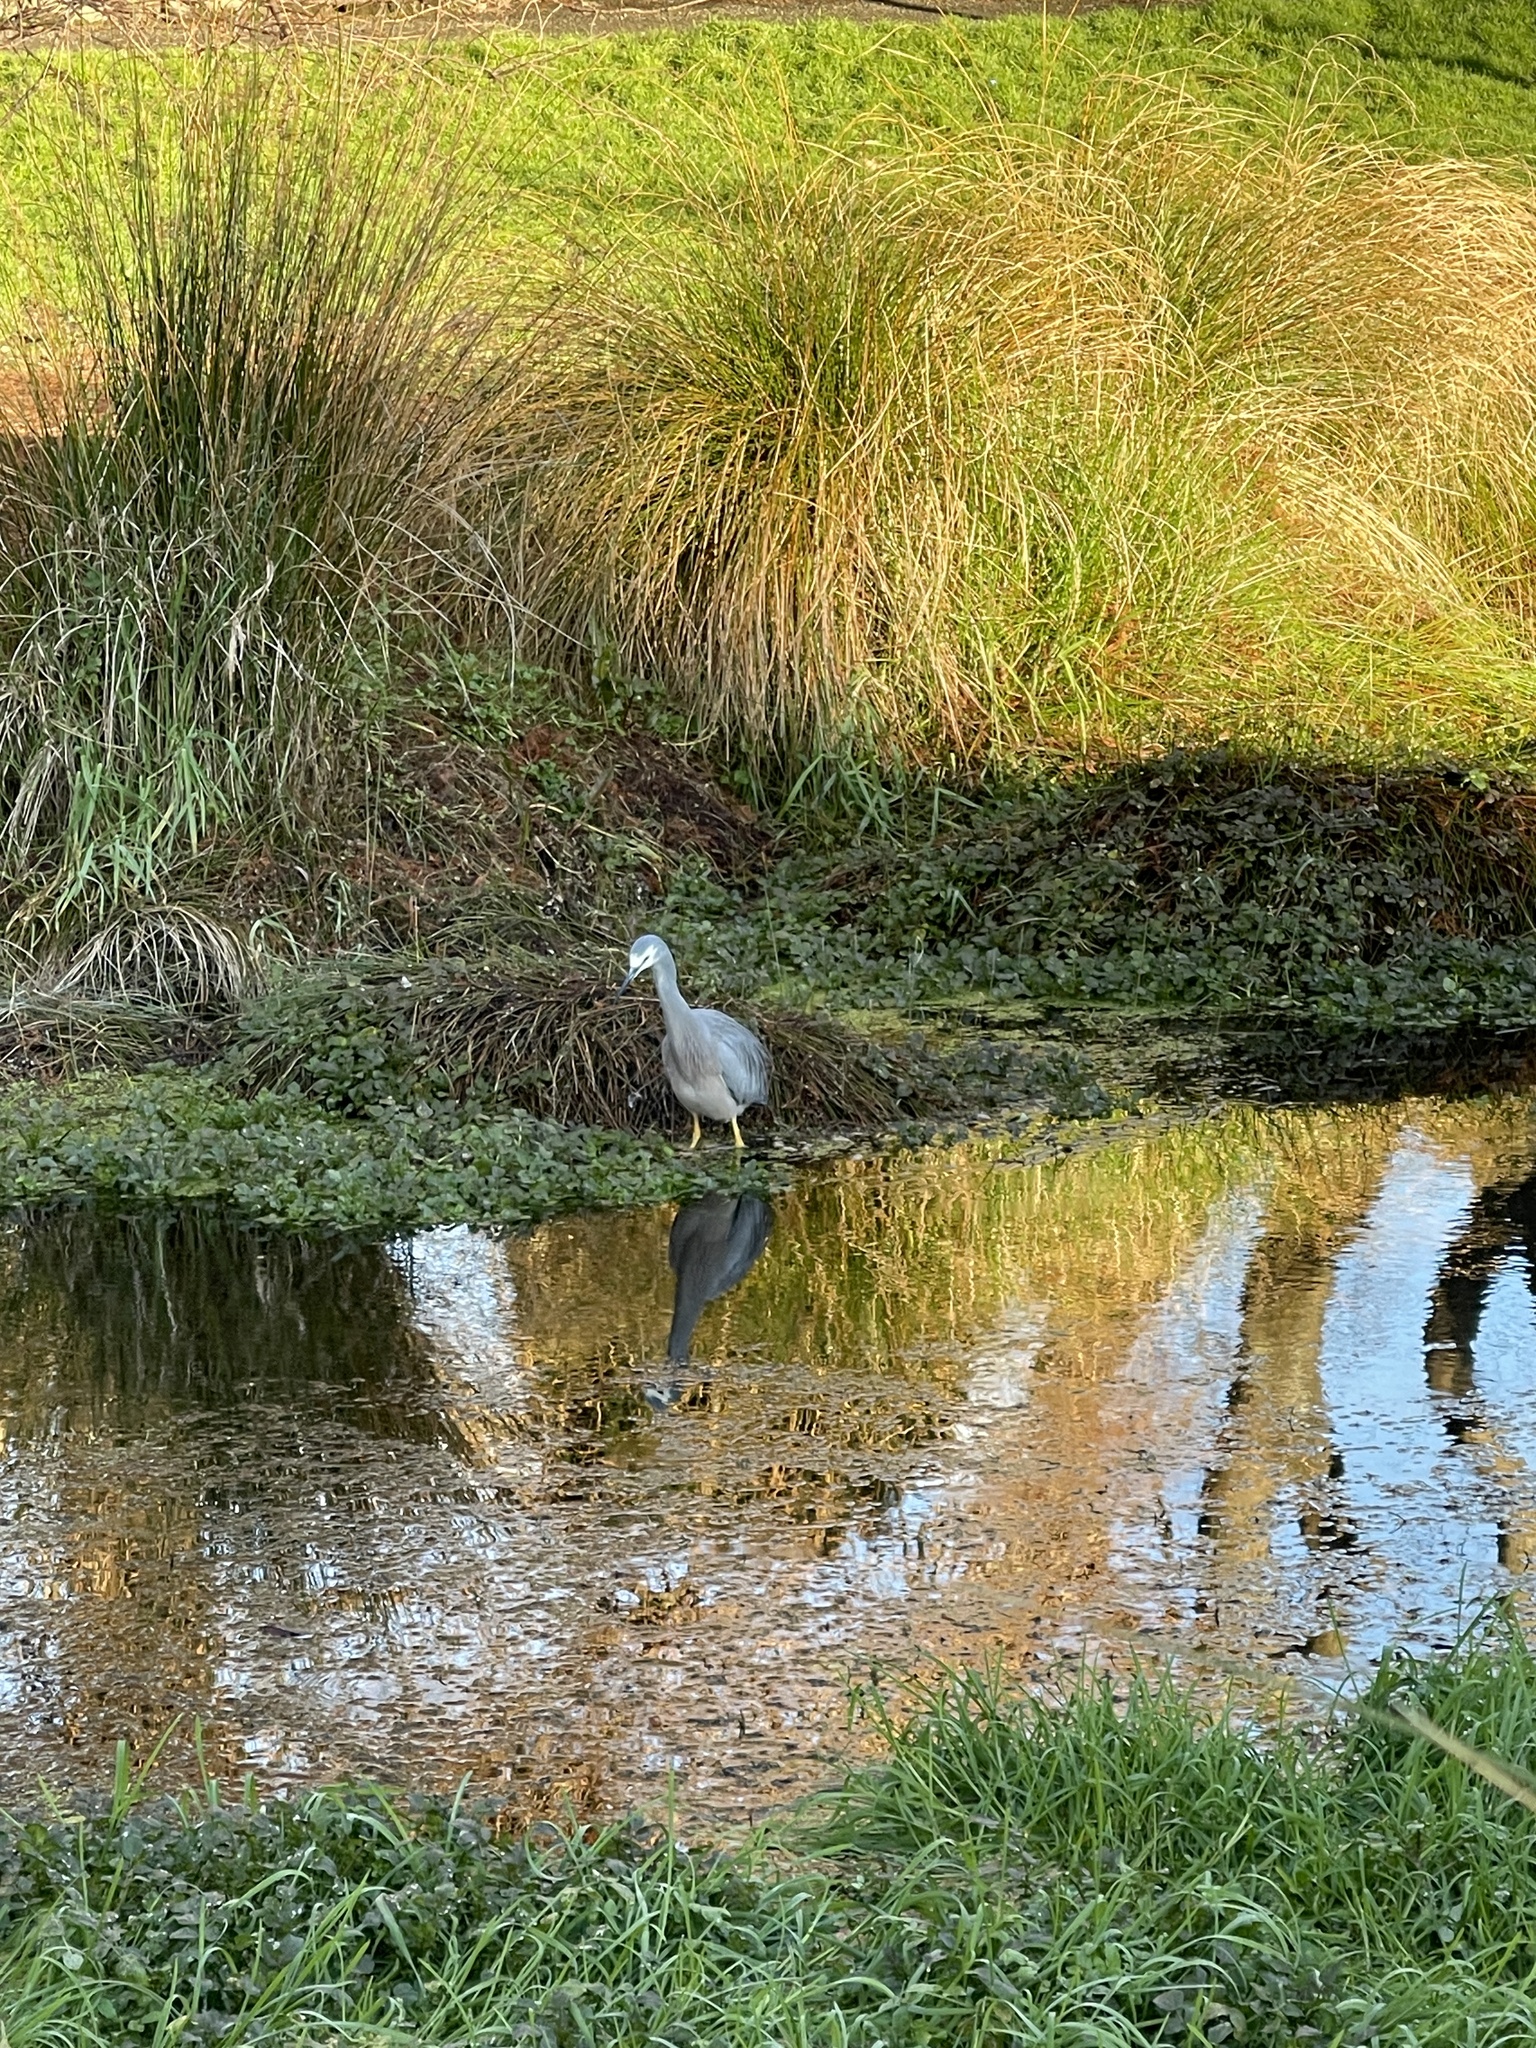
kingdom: Animalia
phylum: Chordata
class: Aves
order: Pelecaniformes
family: Ardeidae
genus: Egretta
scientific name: Egretta novaehollandiae
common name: White-faced heron
